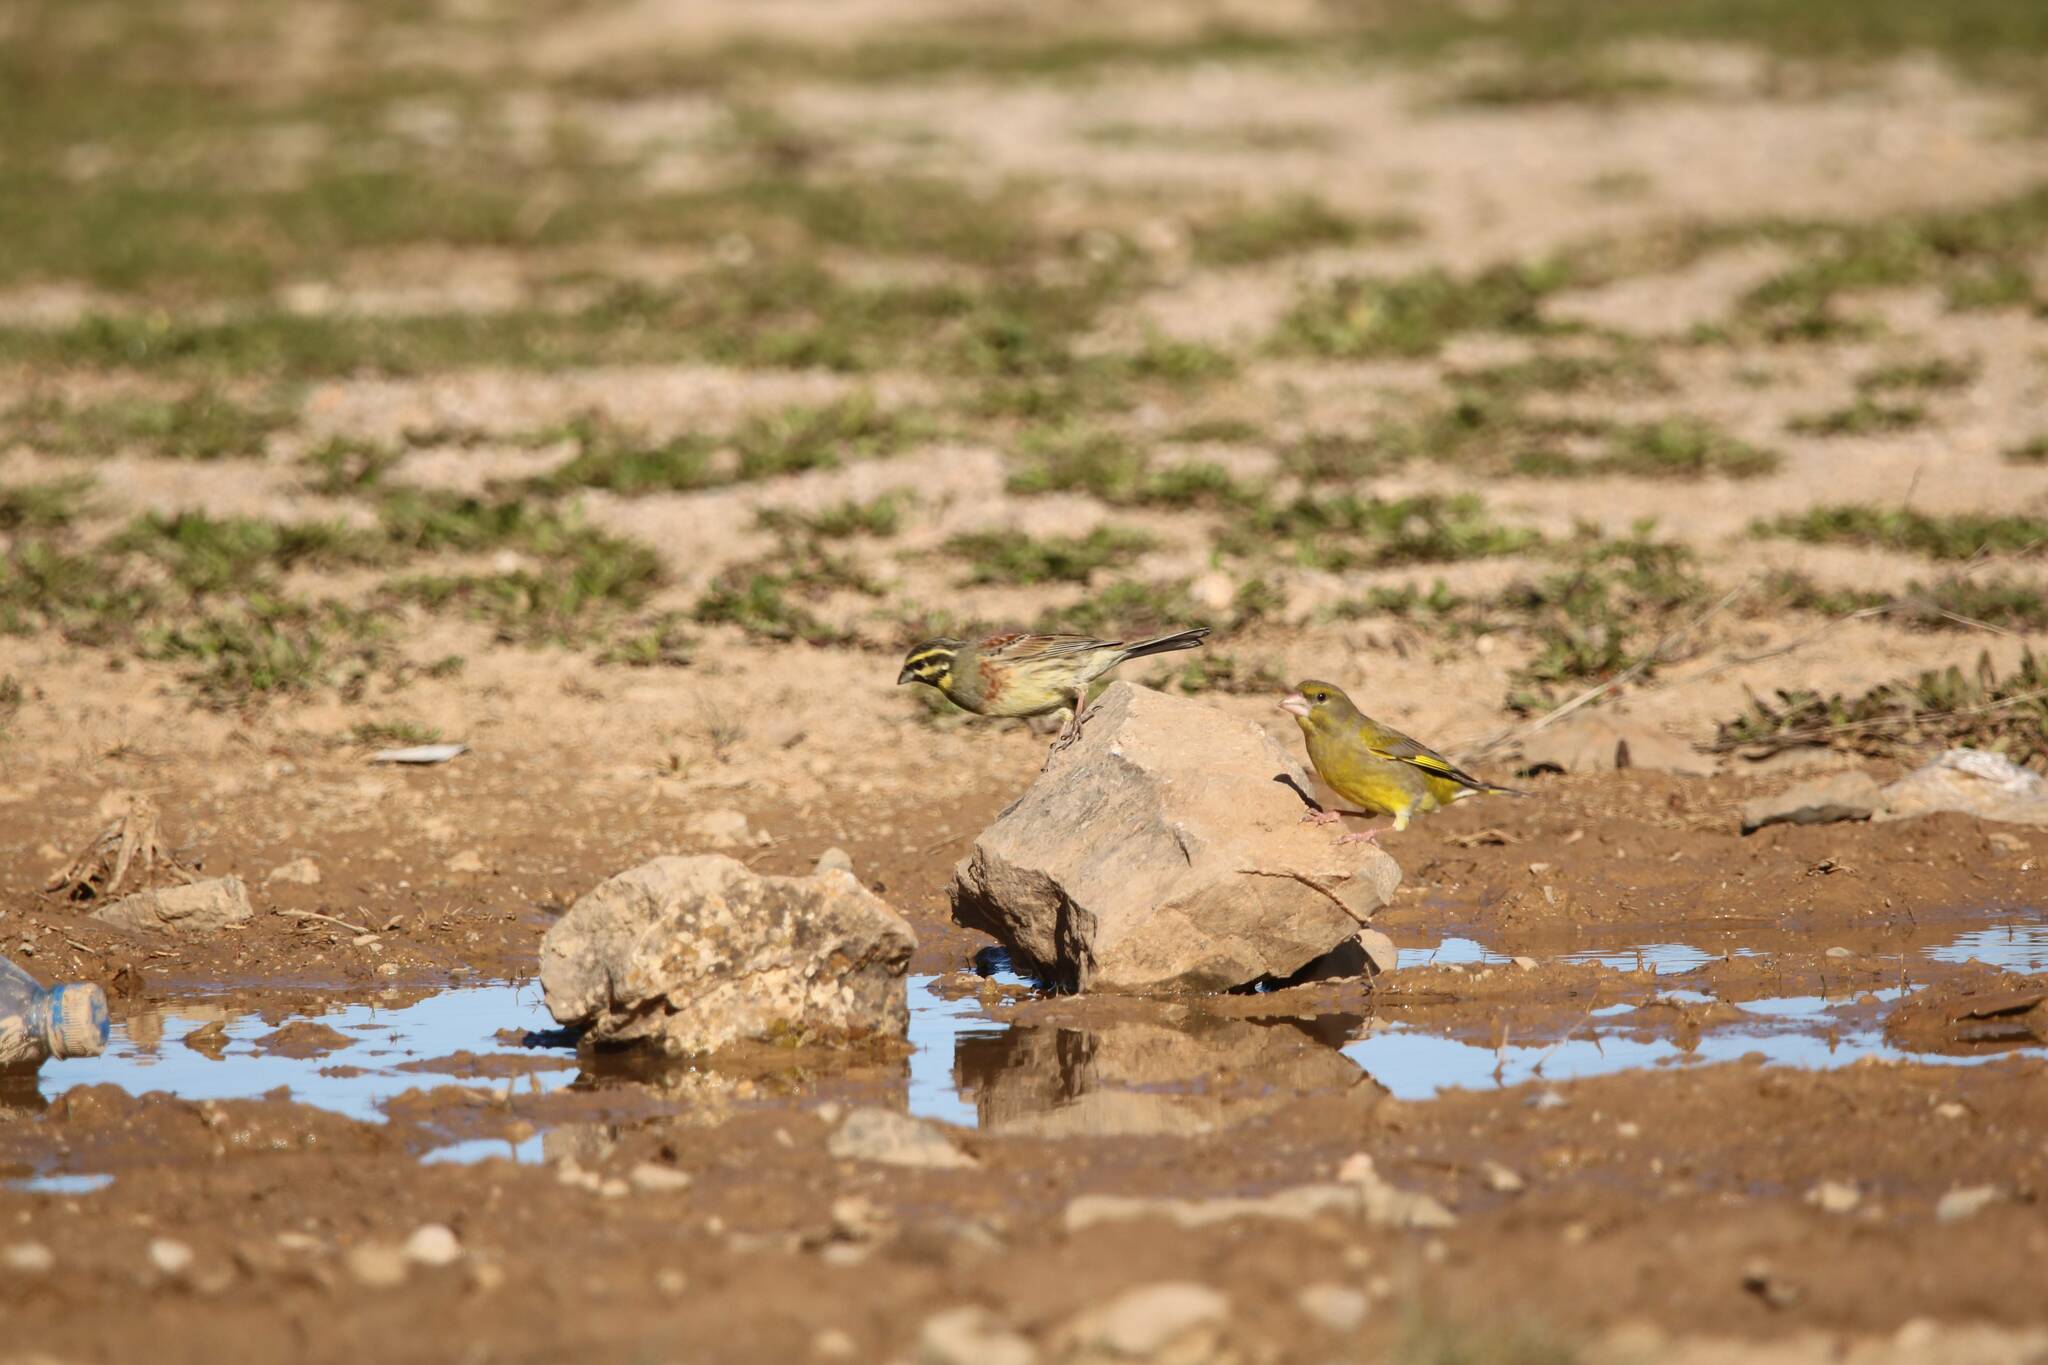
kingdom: Plantae
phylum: Tracheophyta
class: Liliopsida
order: Poales
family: Poaceae
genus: Chloris
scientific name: Chloris chloris
